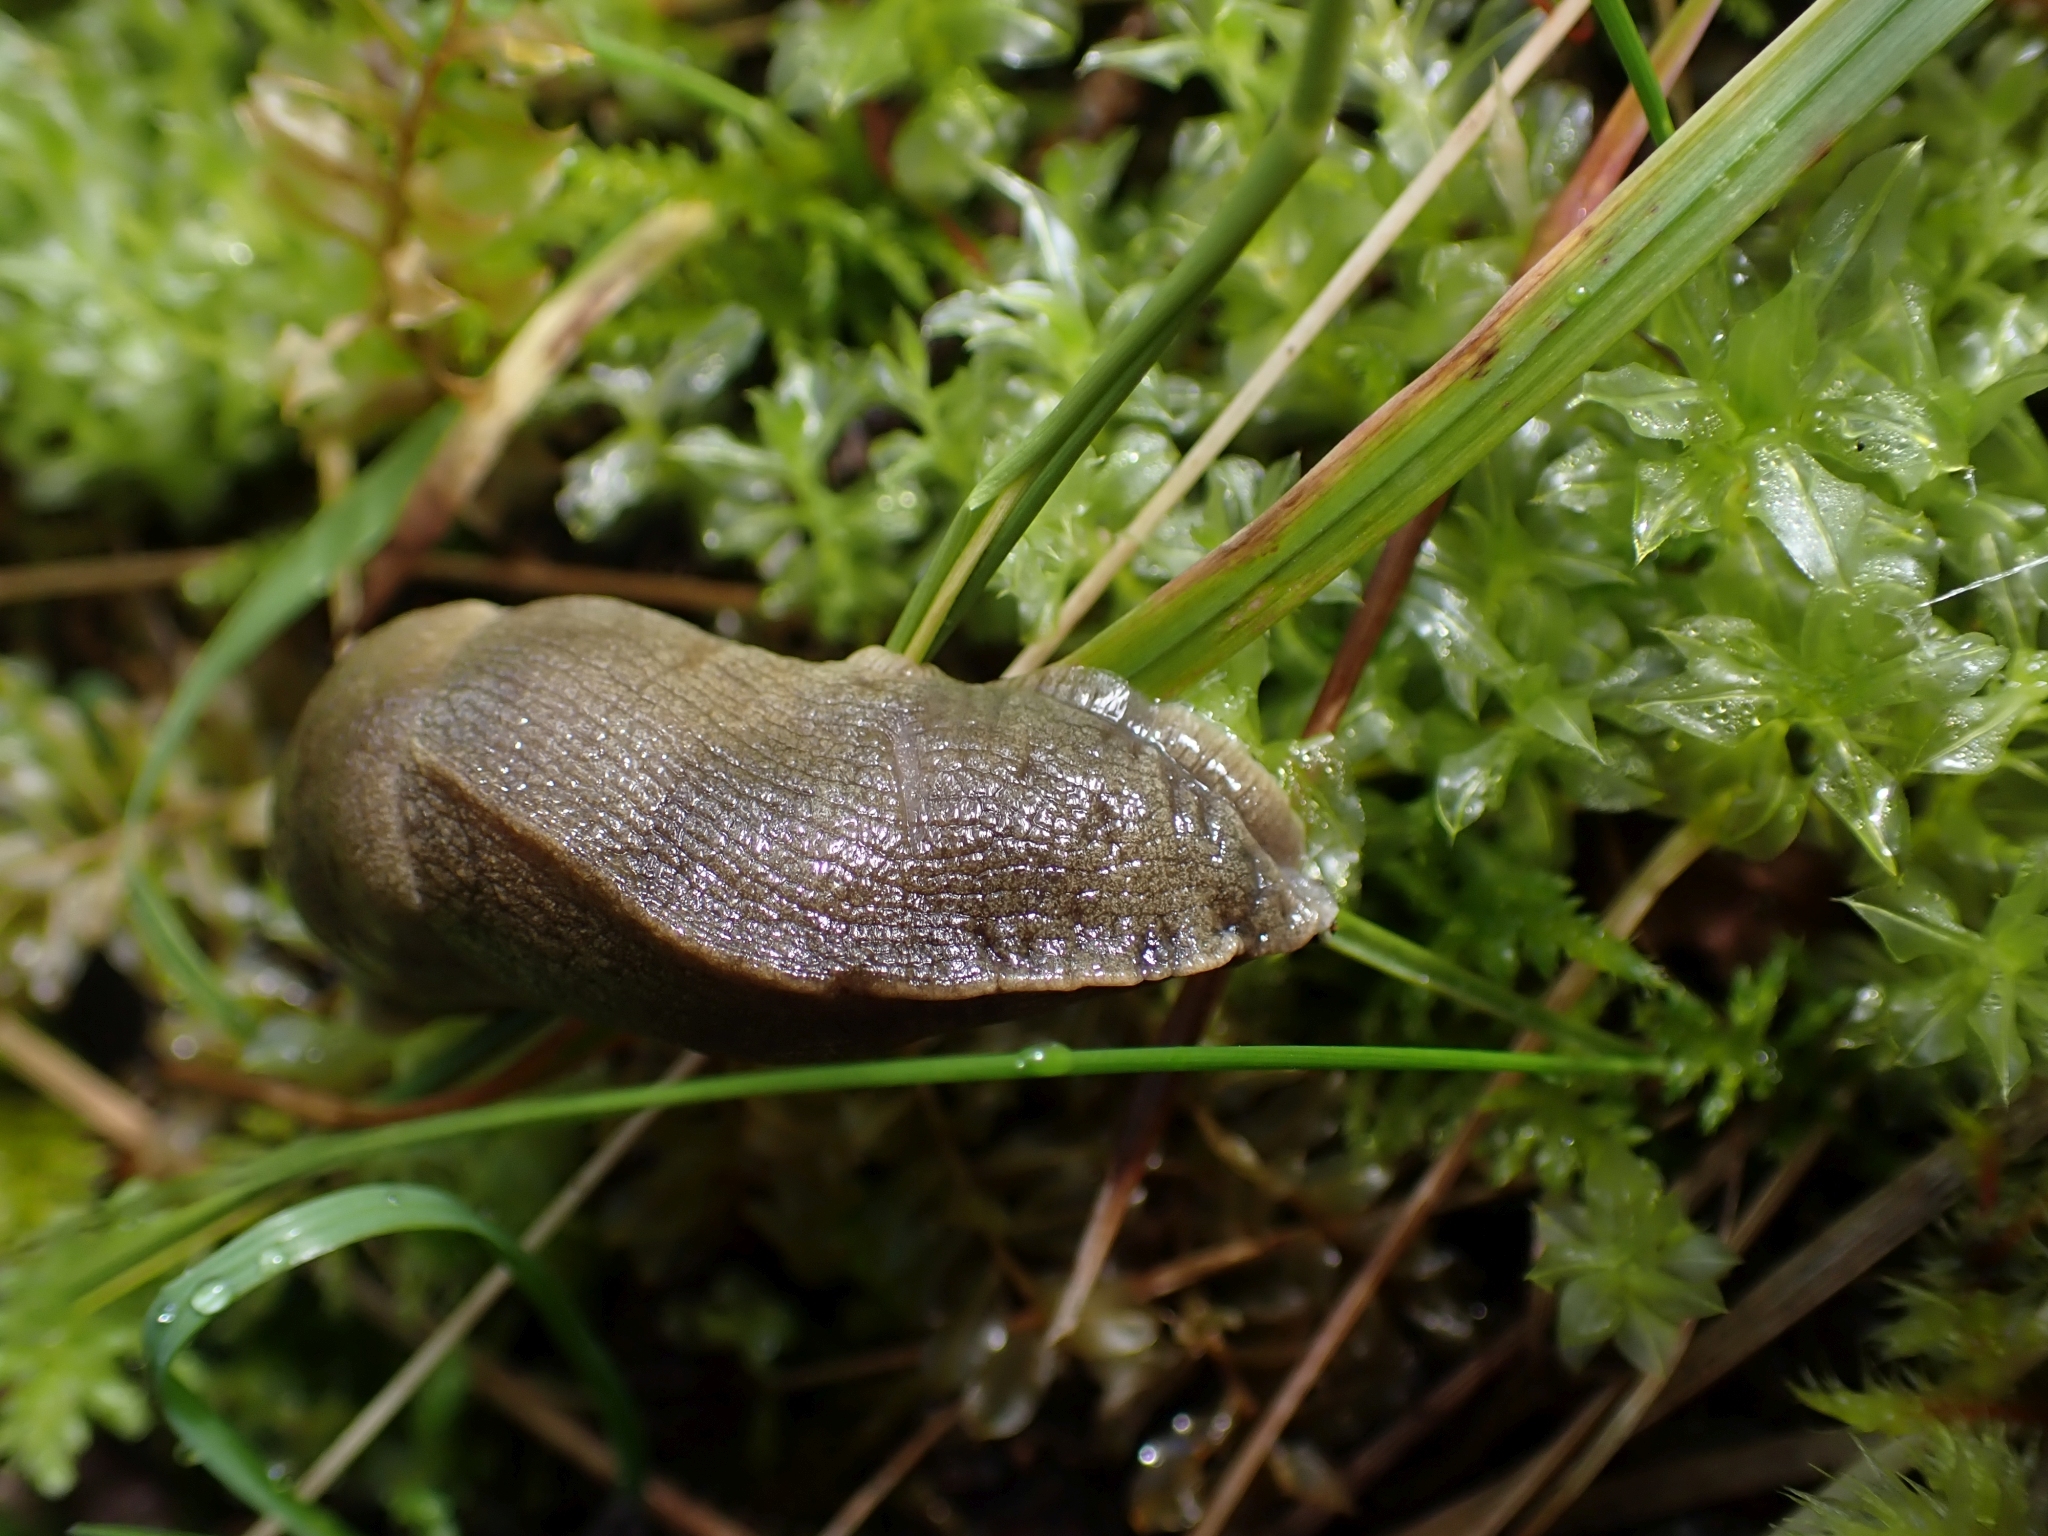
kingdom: Animalia
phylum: Mollusca
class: Gastropoda
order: Stylommatophora
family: Ariolimacidae
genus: Ariolimax
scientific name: Ariolimax columbianus
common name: Pacific banana slug
